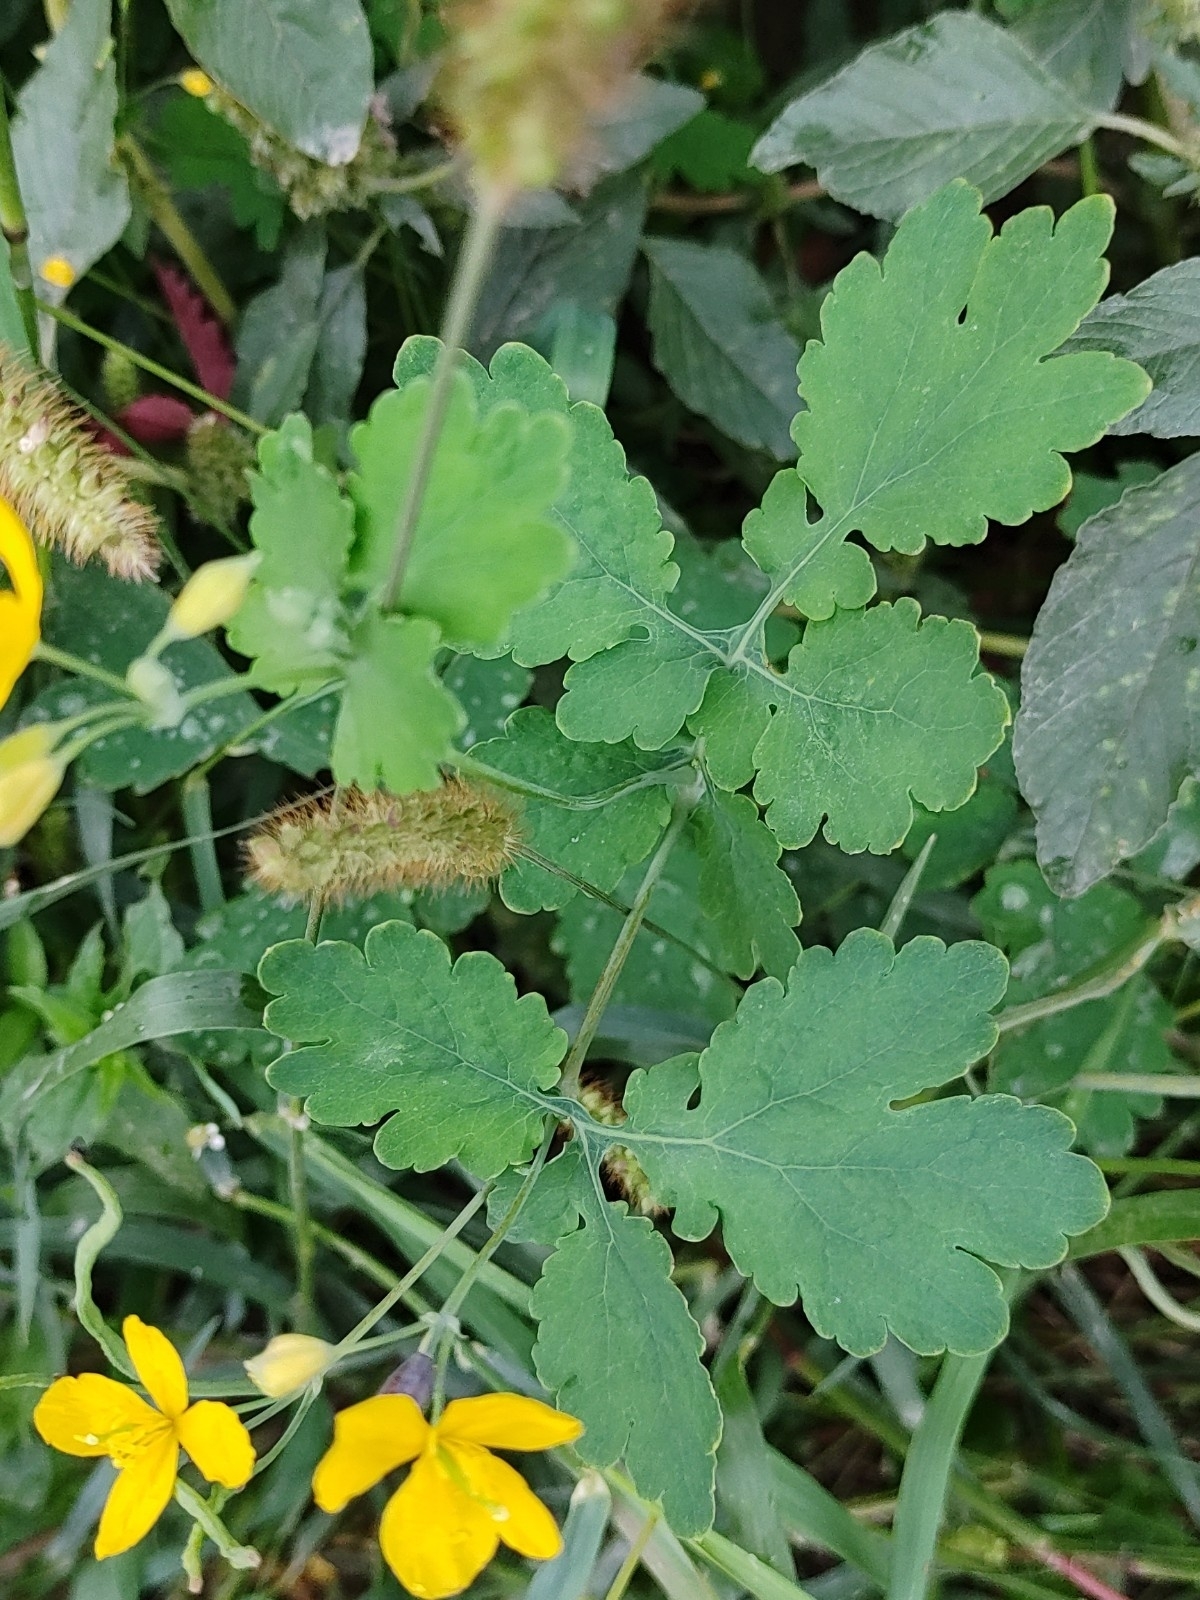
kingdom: Plantae
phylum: Tracheophyta
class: Magnoliopsida
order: Ranunculales
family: Papaveraceae
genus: Chelidonium
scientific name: Chelidonium majus
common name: Greater celandine
